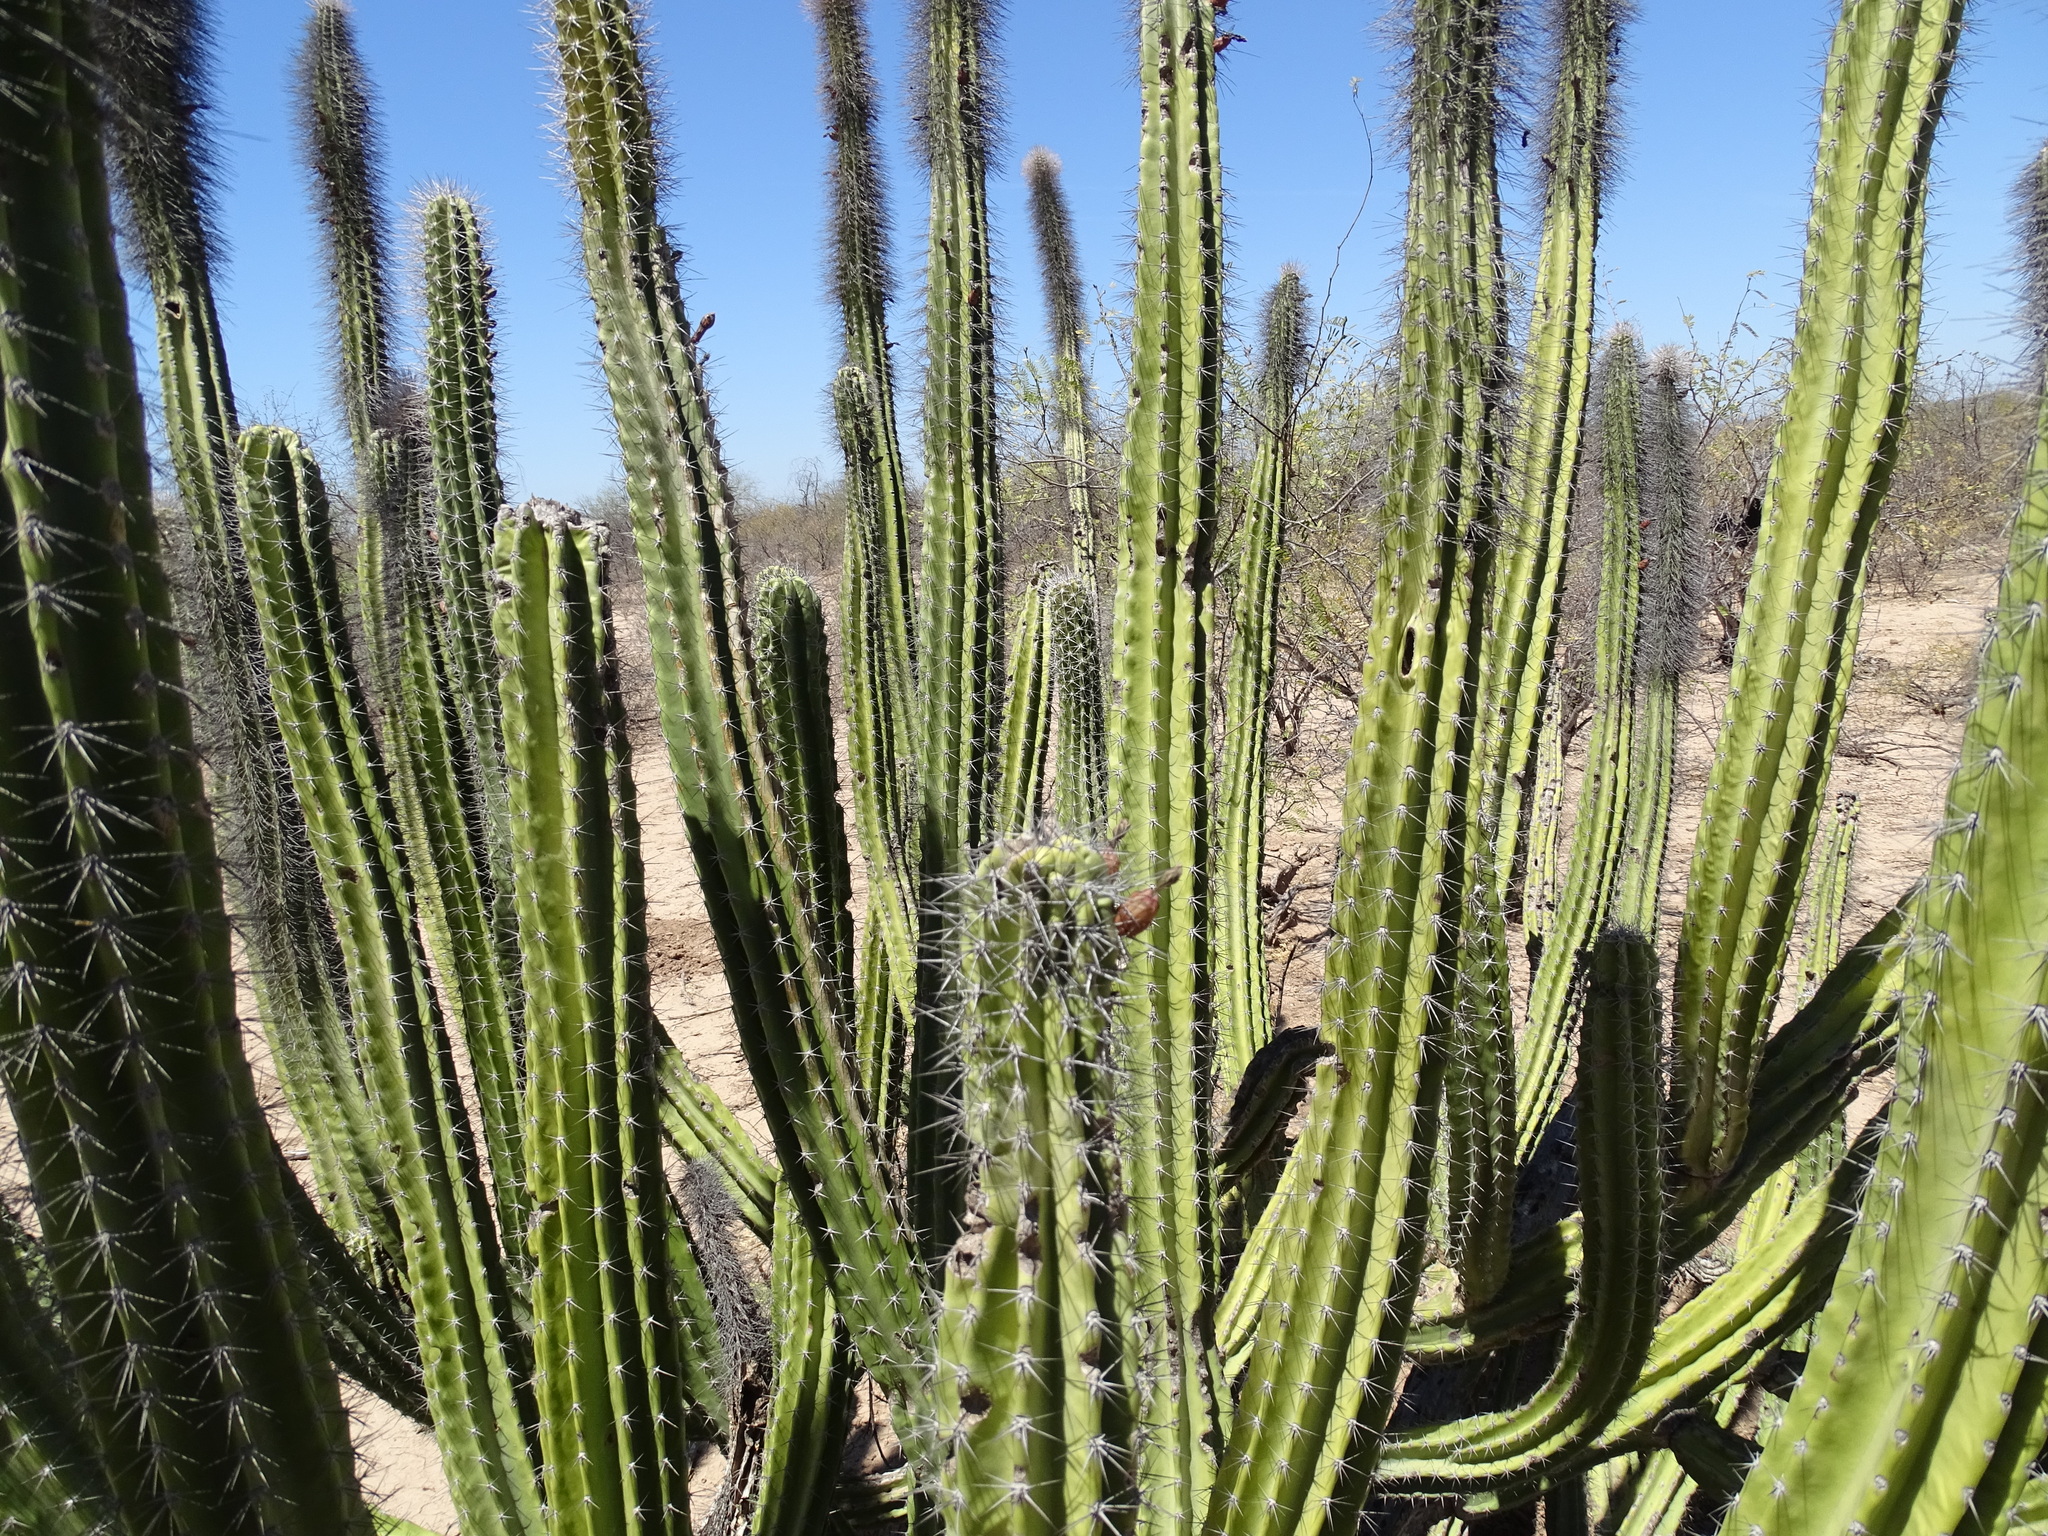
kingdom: Plantae
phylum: Tracheophyta
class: Magnoliopsida
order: Caryophyllales
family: Cactaceae
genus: Pachycereus
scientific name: Pachycereus schottii
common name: Senita cactus
